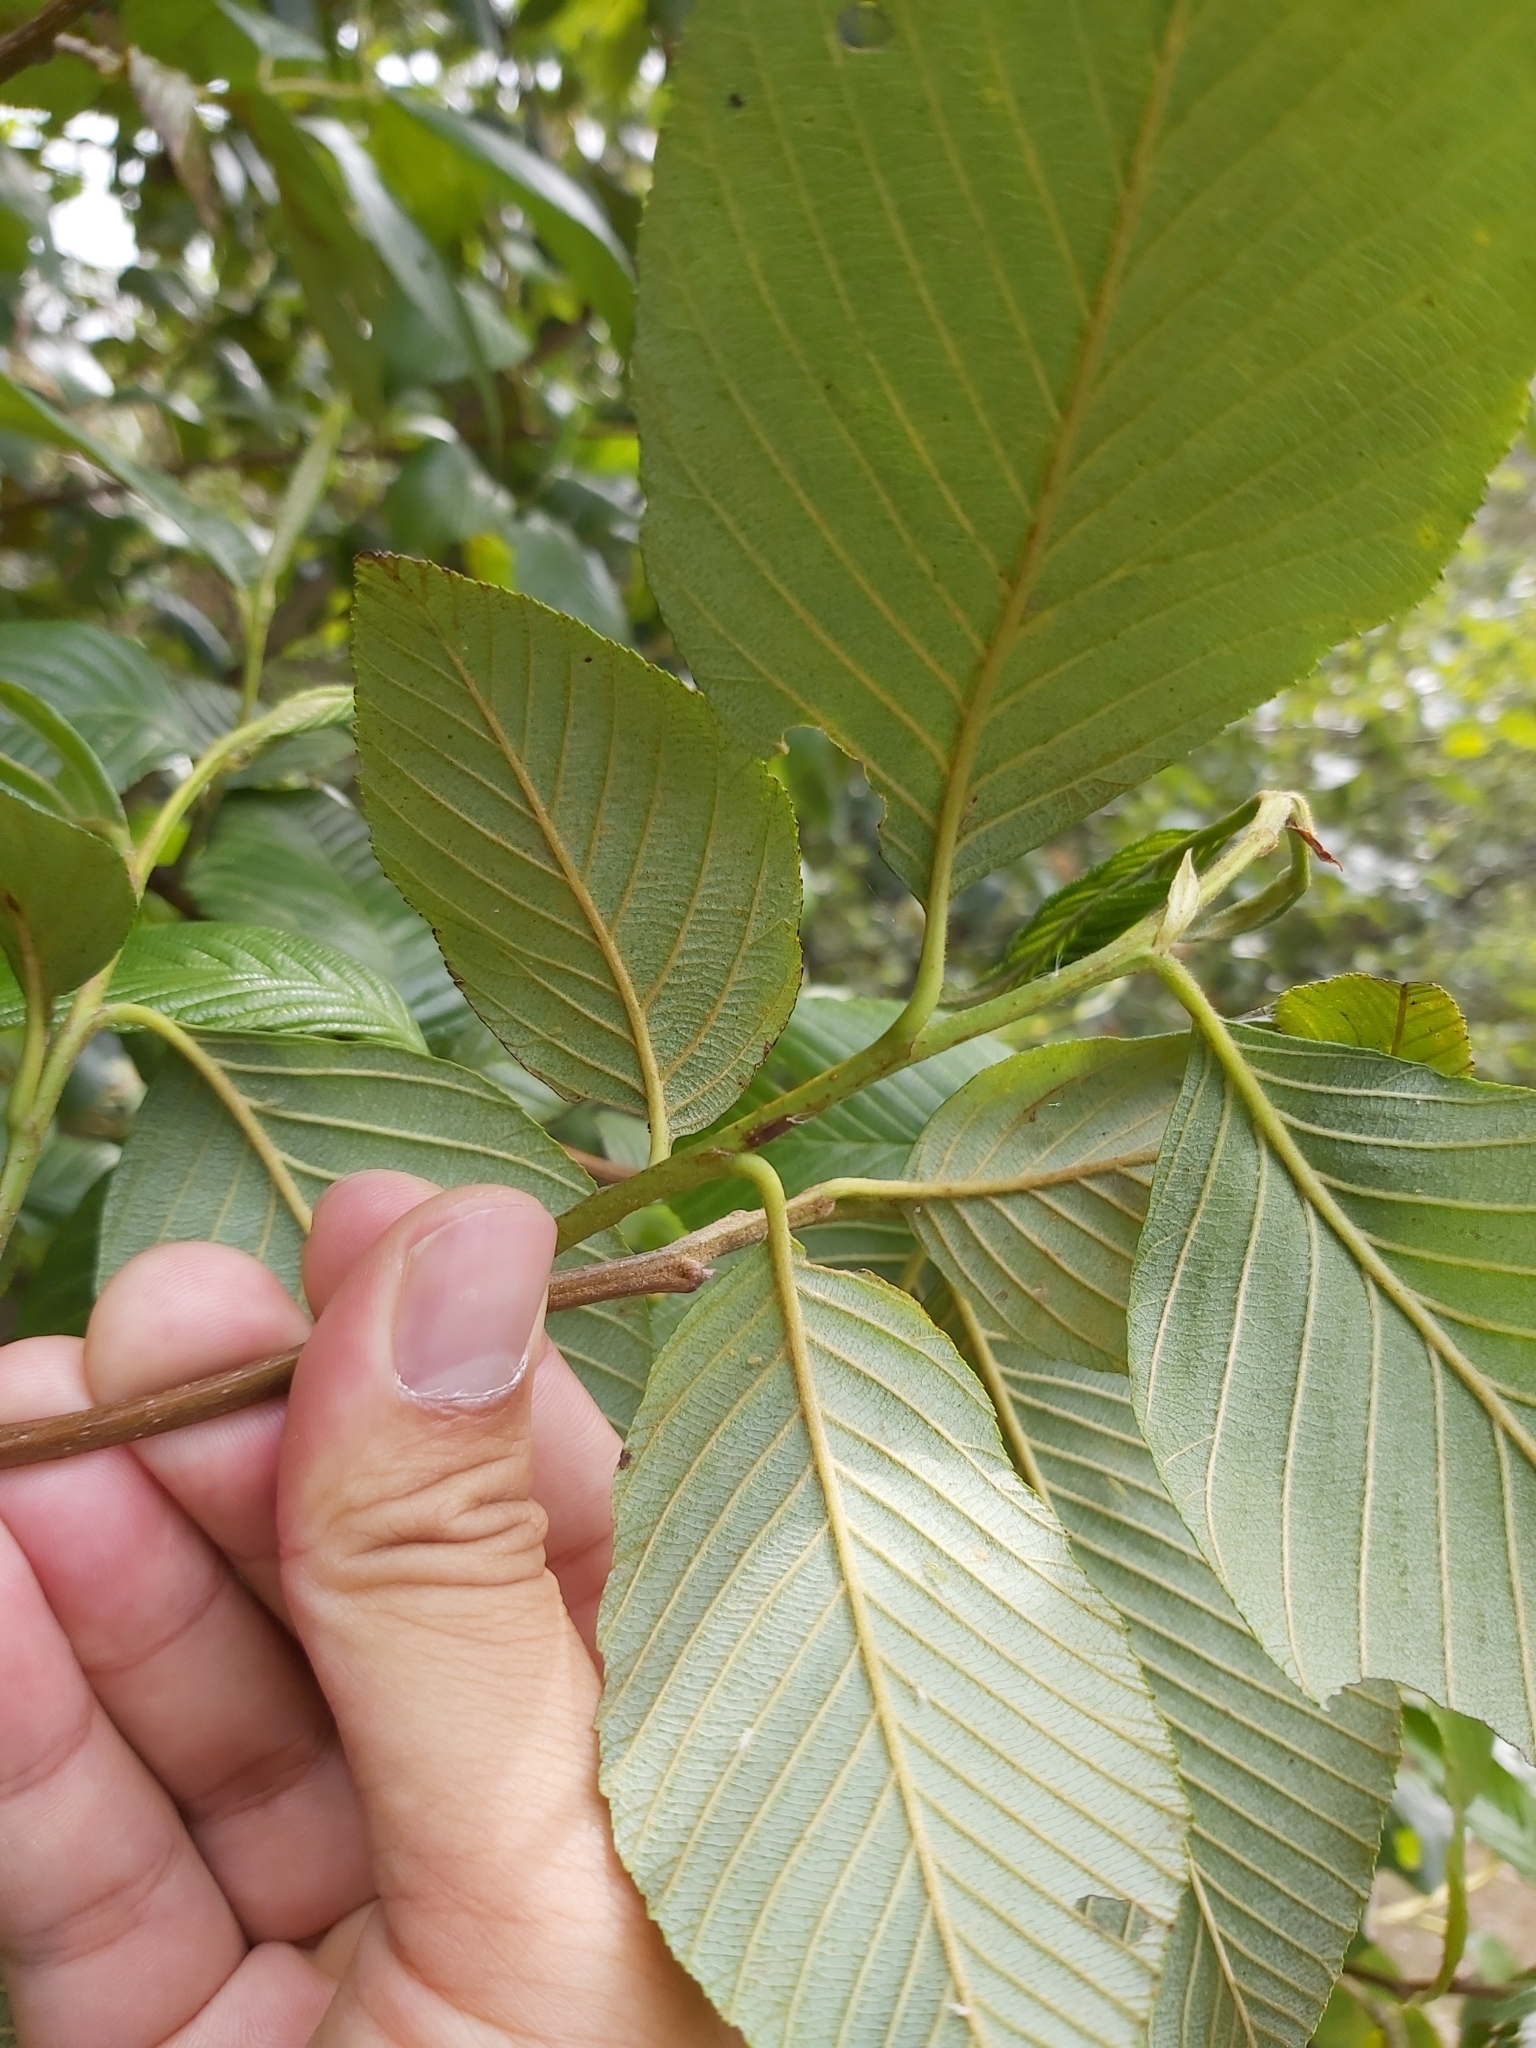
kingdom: Plantae
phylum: Tracheophyta
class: Magnoliopsida
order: Fagales
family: Betulaceae
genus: Alnus
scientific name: Alnus acuminata
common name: Alder
